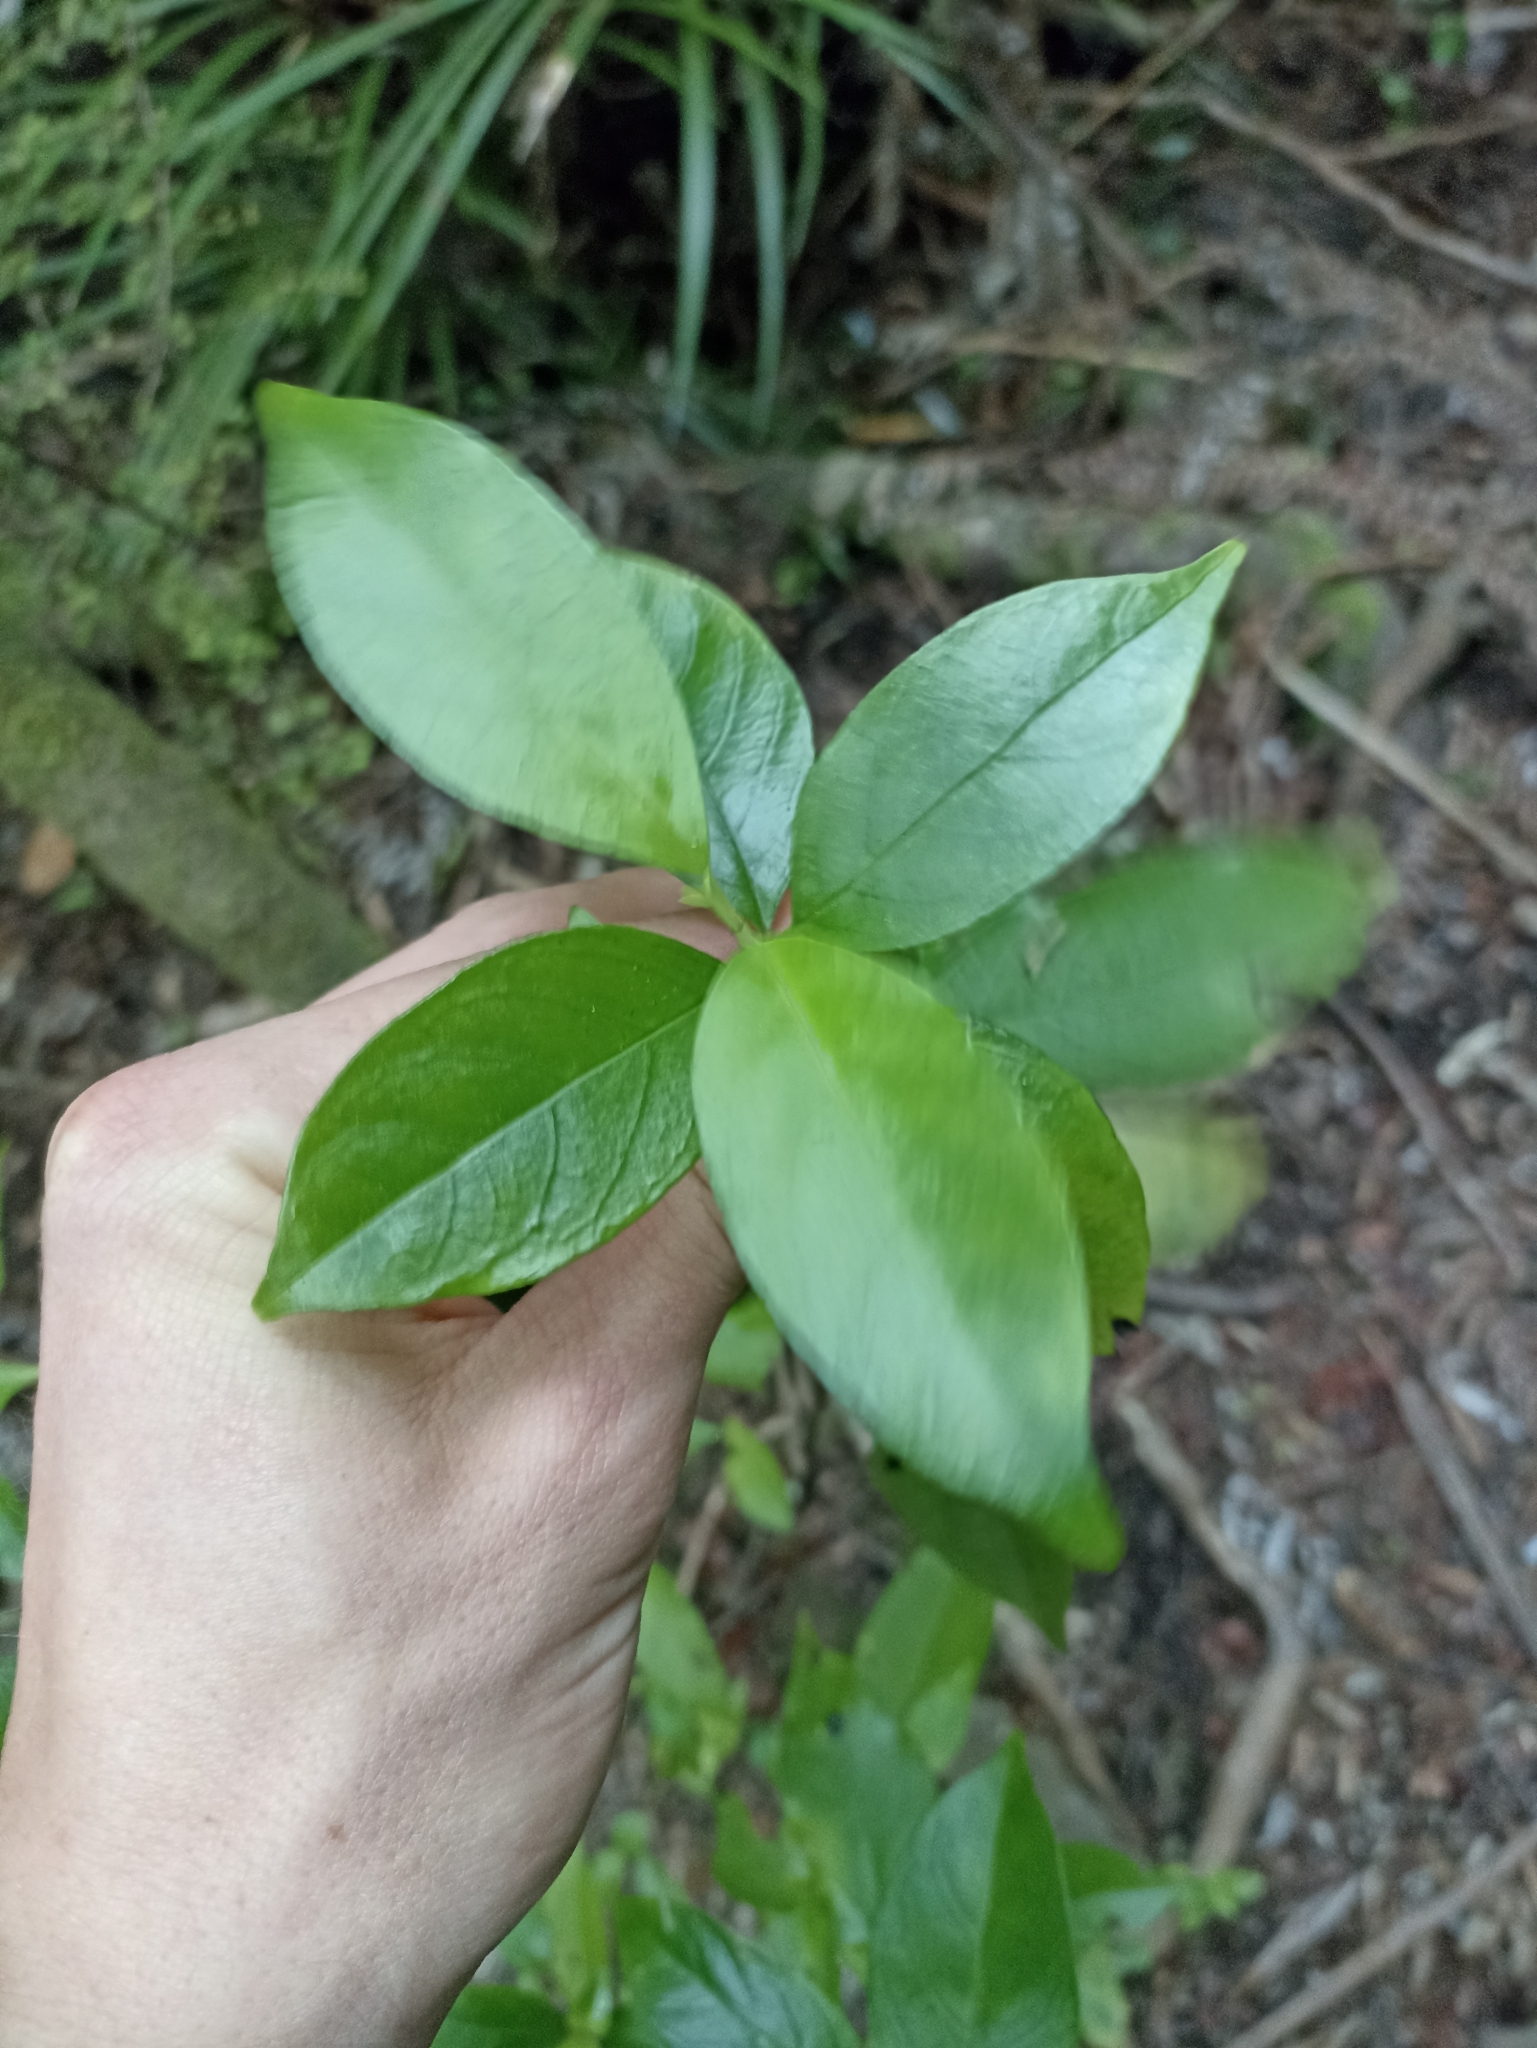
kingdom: Plantae
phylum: Tracheophyta
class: Magnoliopsida
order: Gentianales
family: Loganiaceae
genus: Geniostoma
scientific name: Geniostoma ligustrifolium
